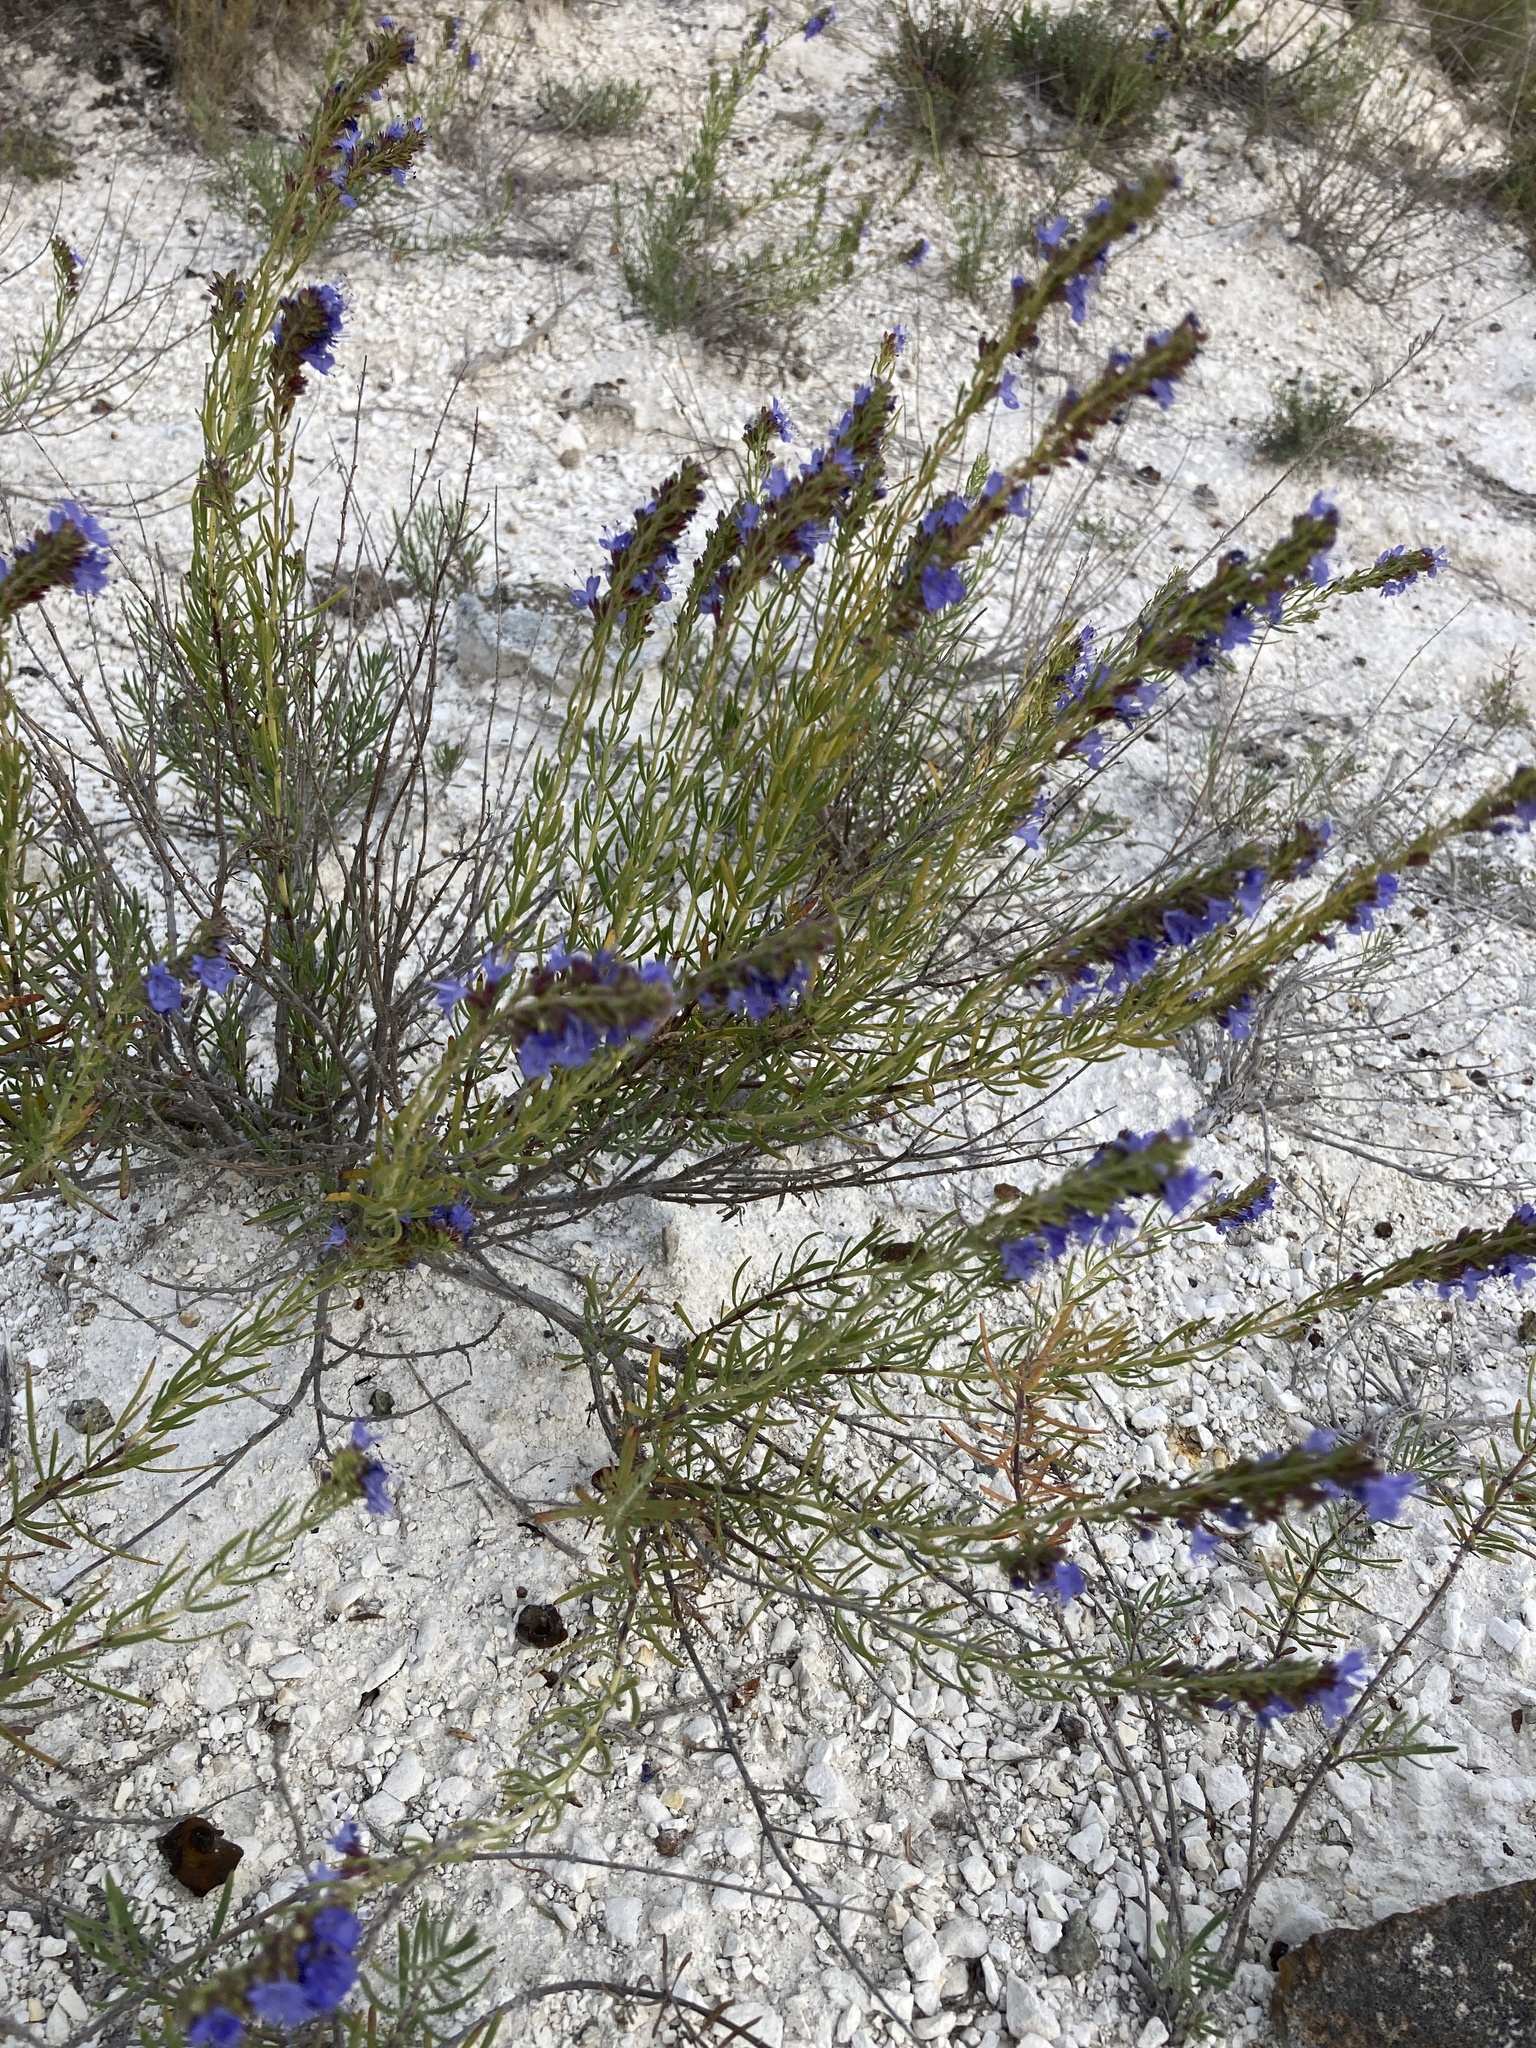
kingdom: Plantae
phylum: Tracheophyta
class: Magnoliopsida
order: Lamiales
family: Lamiaceae
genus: Hyssopus
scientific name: Hyssopus officinalis
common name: Hyssop
